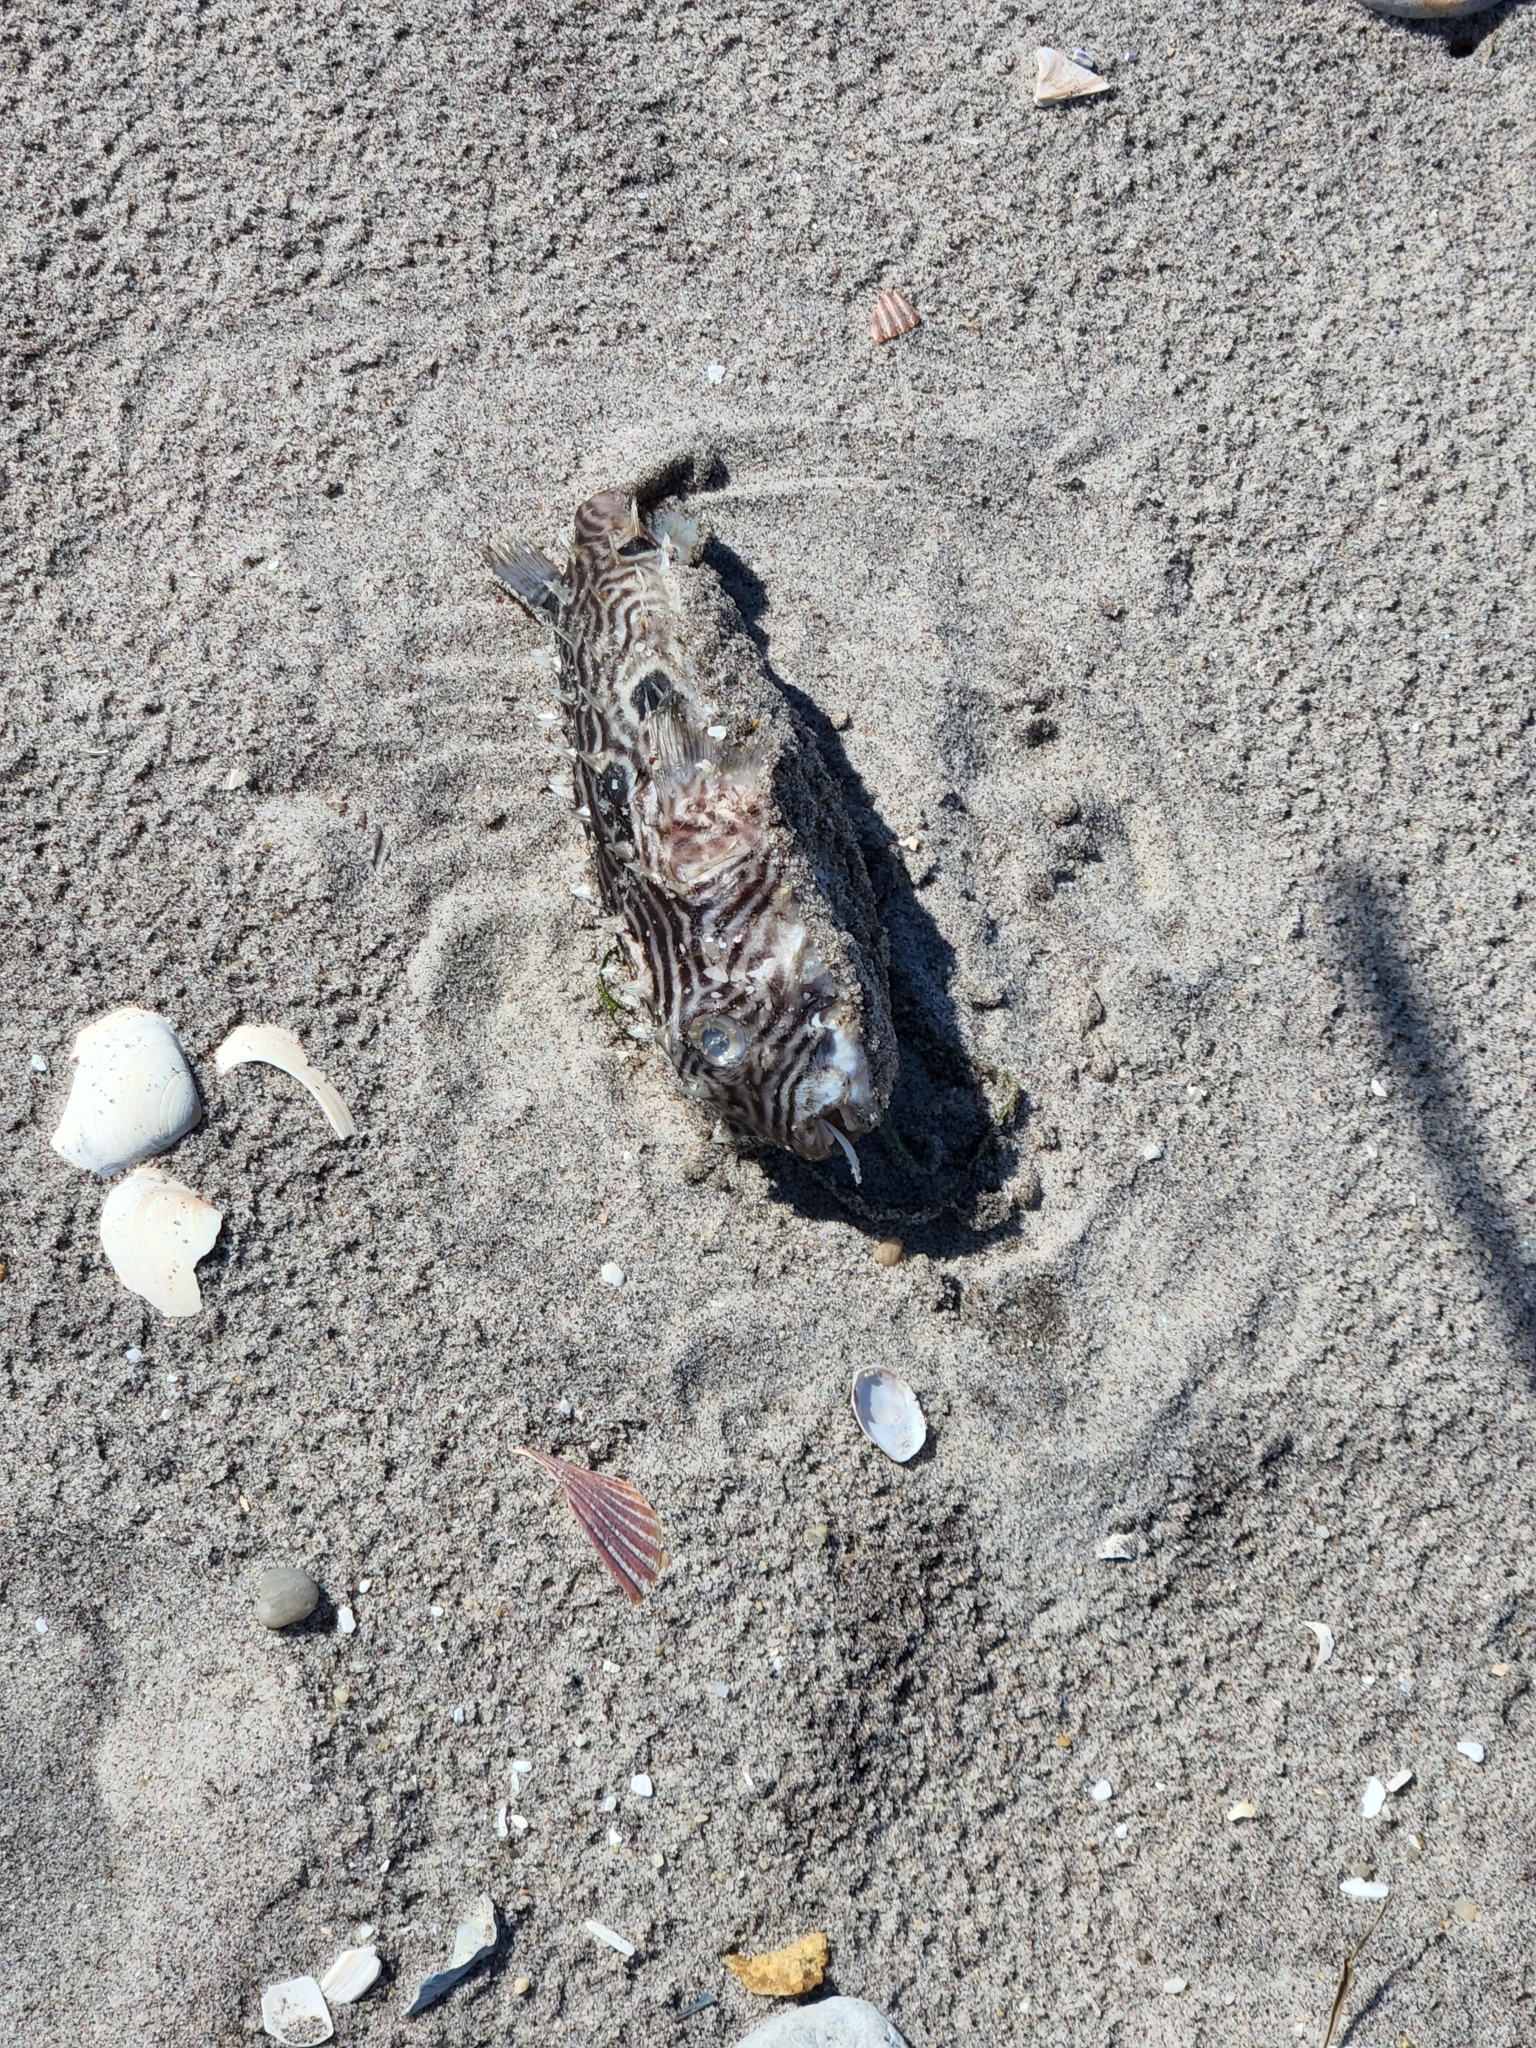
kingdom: Animalia
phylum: Chordata
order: Tetraodontiformes
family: Diodontidae
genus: Chilomycterus
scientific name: Chilomycterus schoepfii
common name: Striped burrfish
